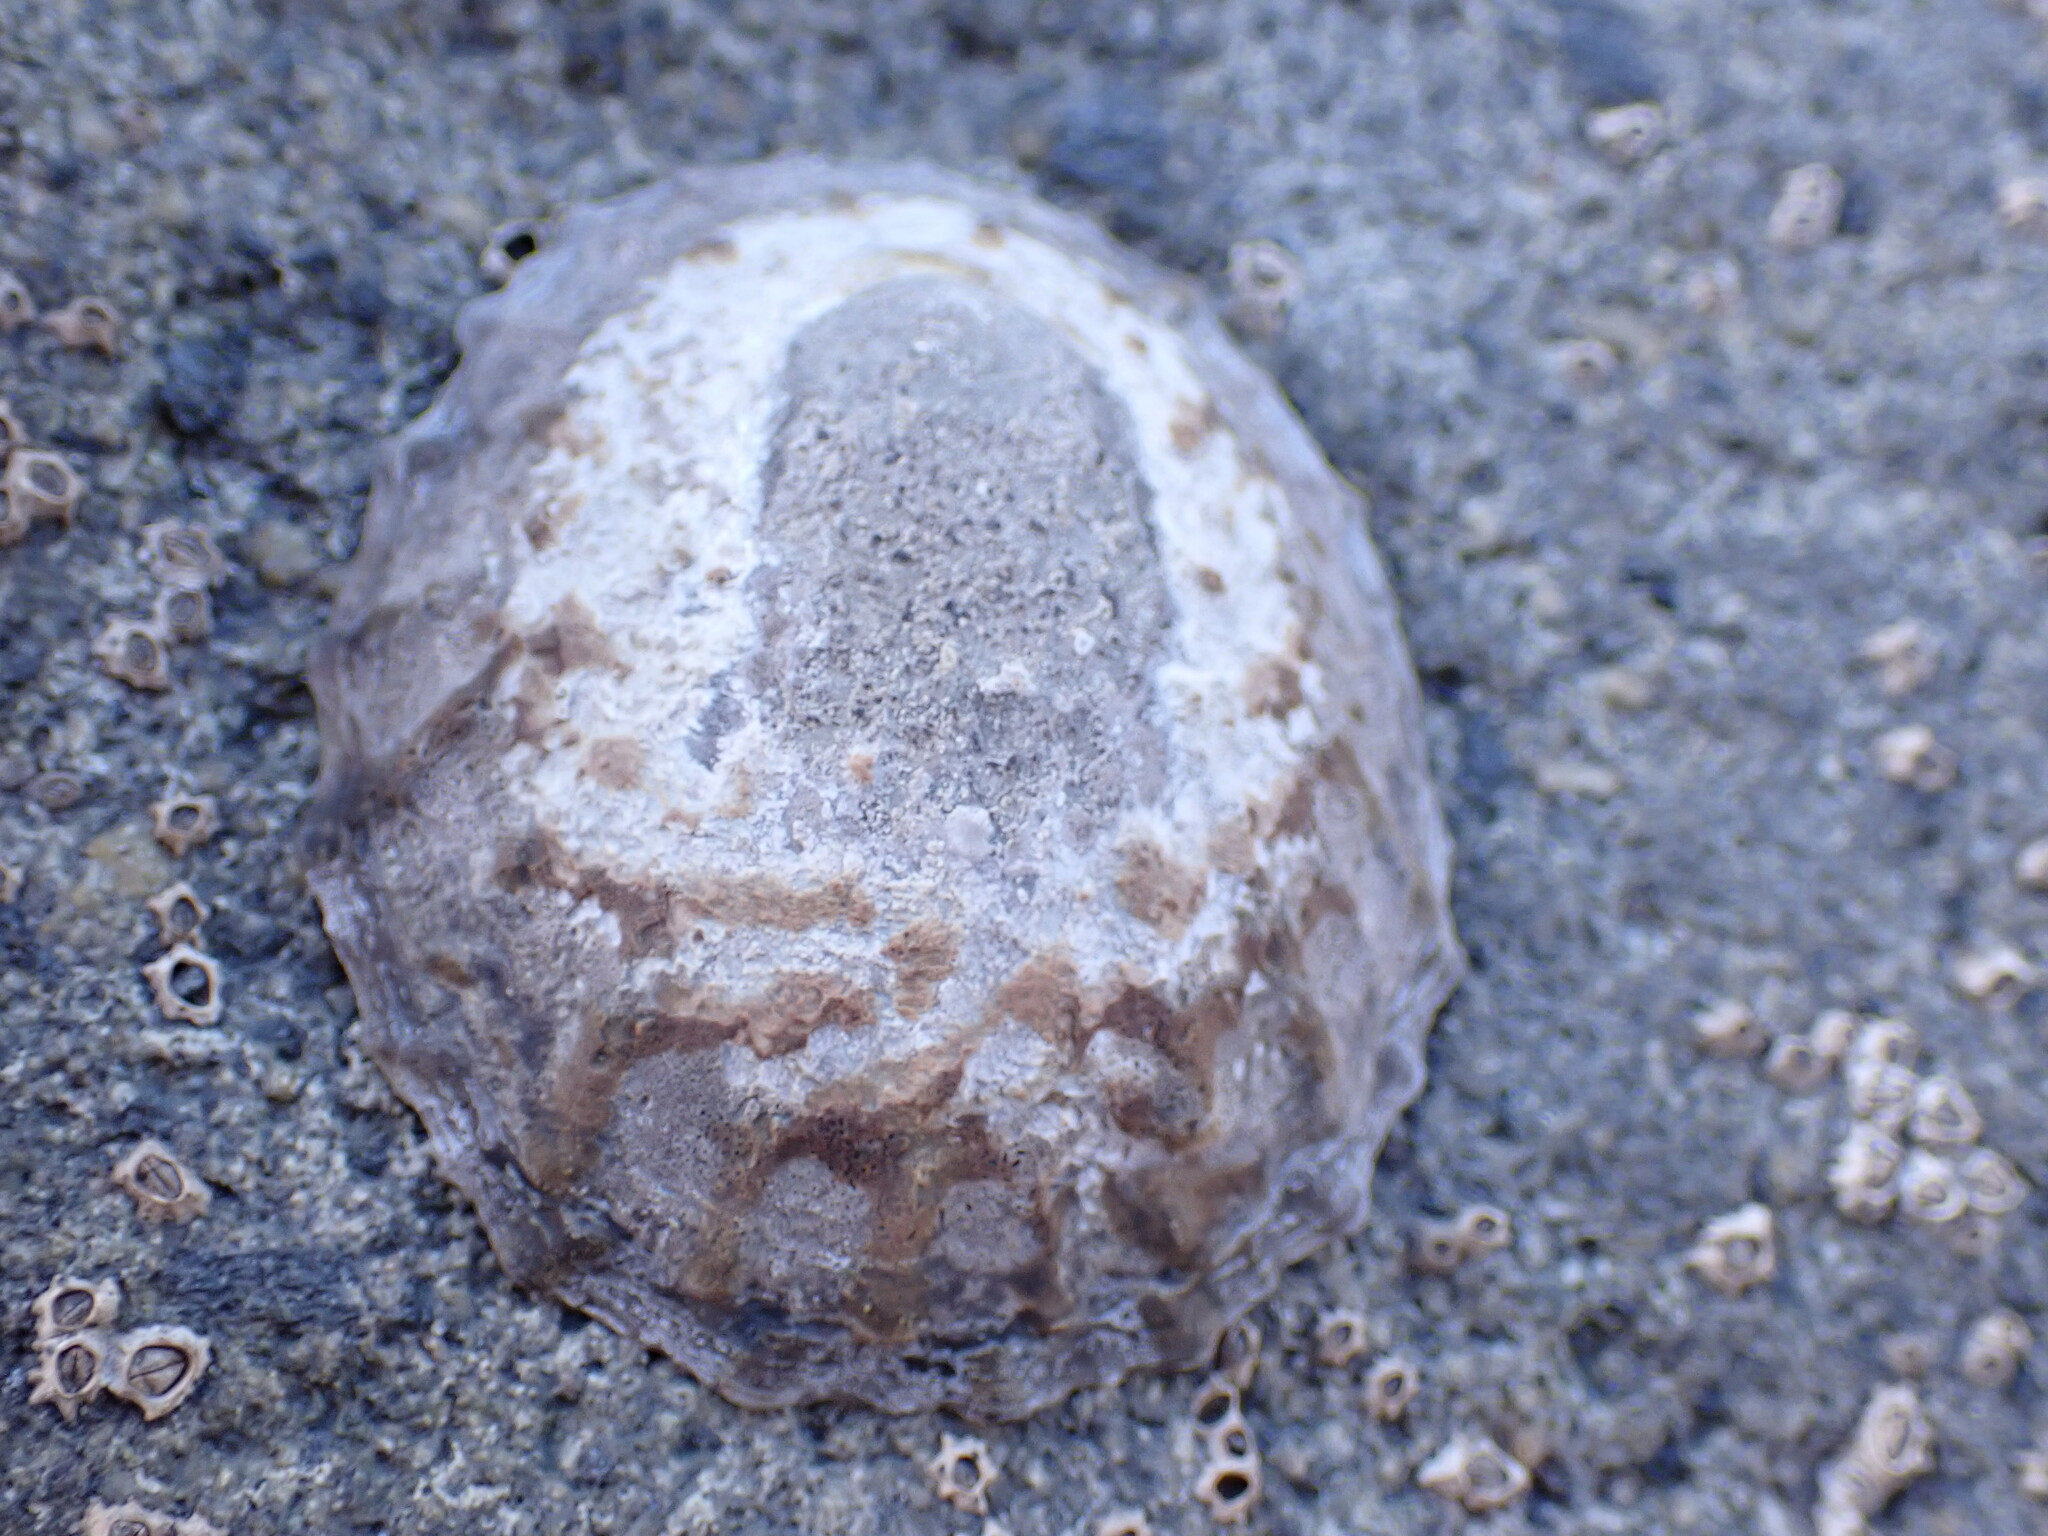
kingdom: Animalia
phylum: Mollusca
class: Gastropoda
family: Nacellidae
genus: Cellana
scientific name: Cellana radians
